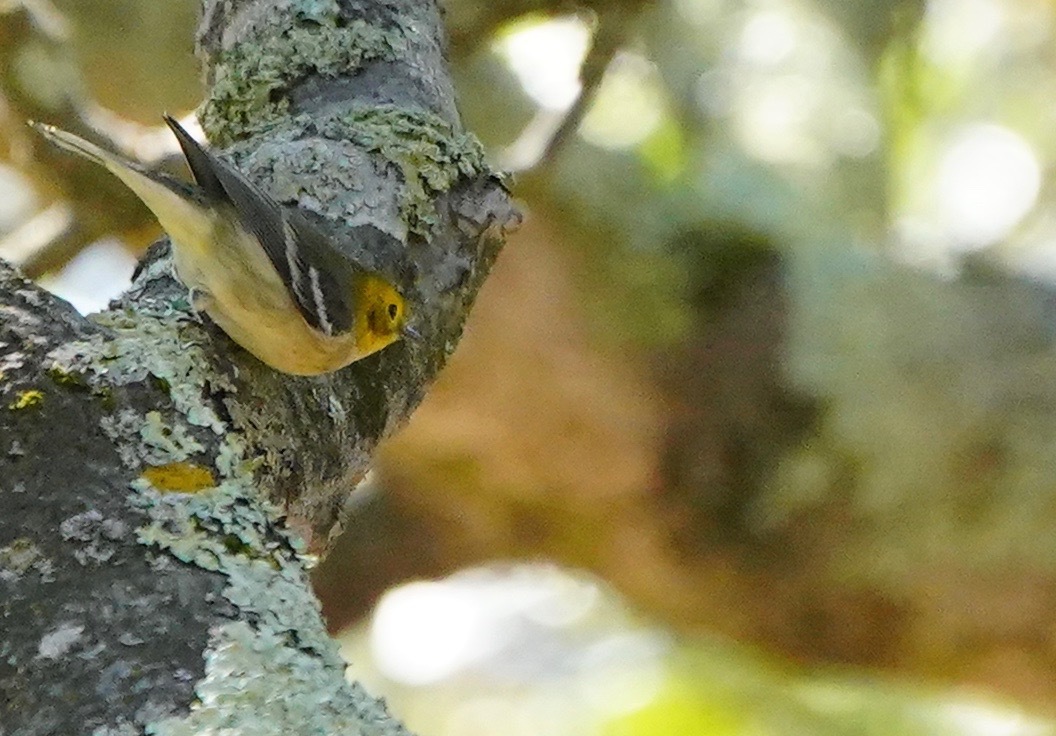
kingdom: Animalia
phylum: Chordata
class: Aves
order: Passeriformes
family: Parulidae
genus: Setophaga
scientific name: Setophaga occidentalis
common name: Hermit warbler
